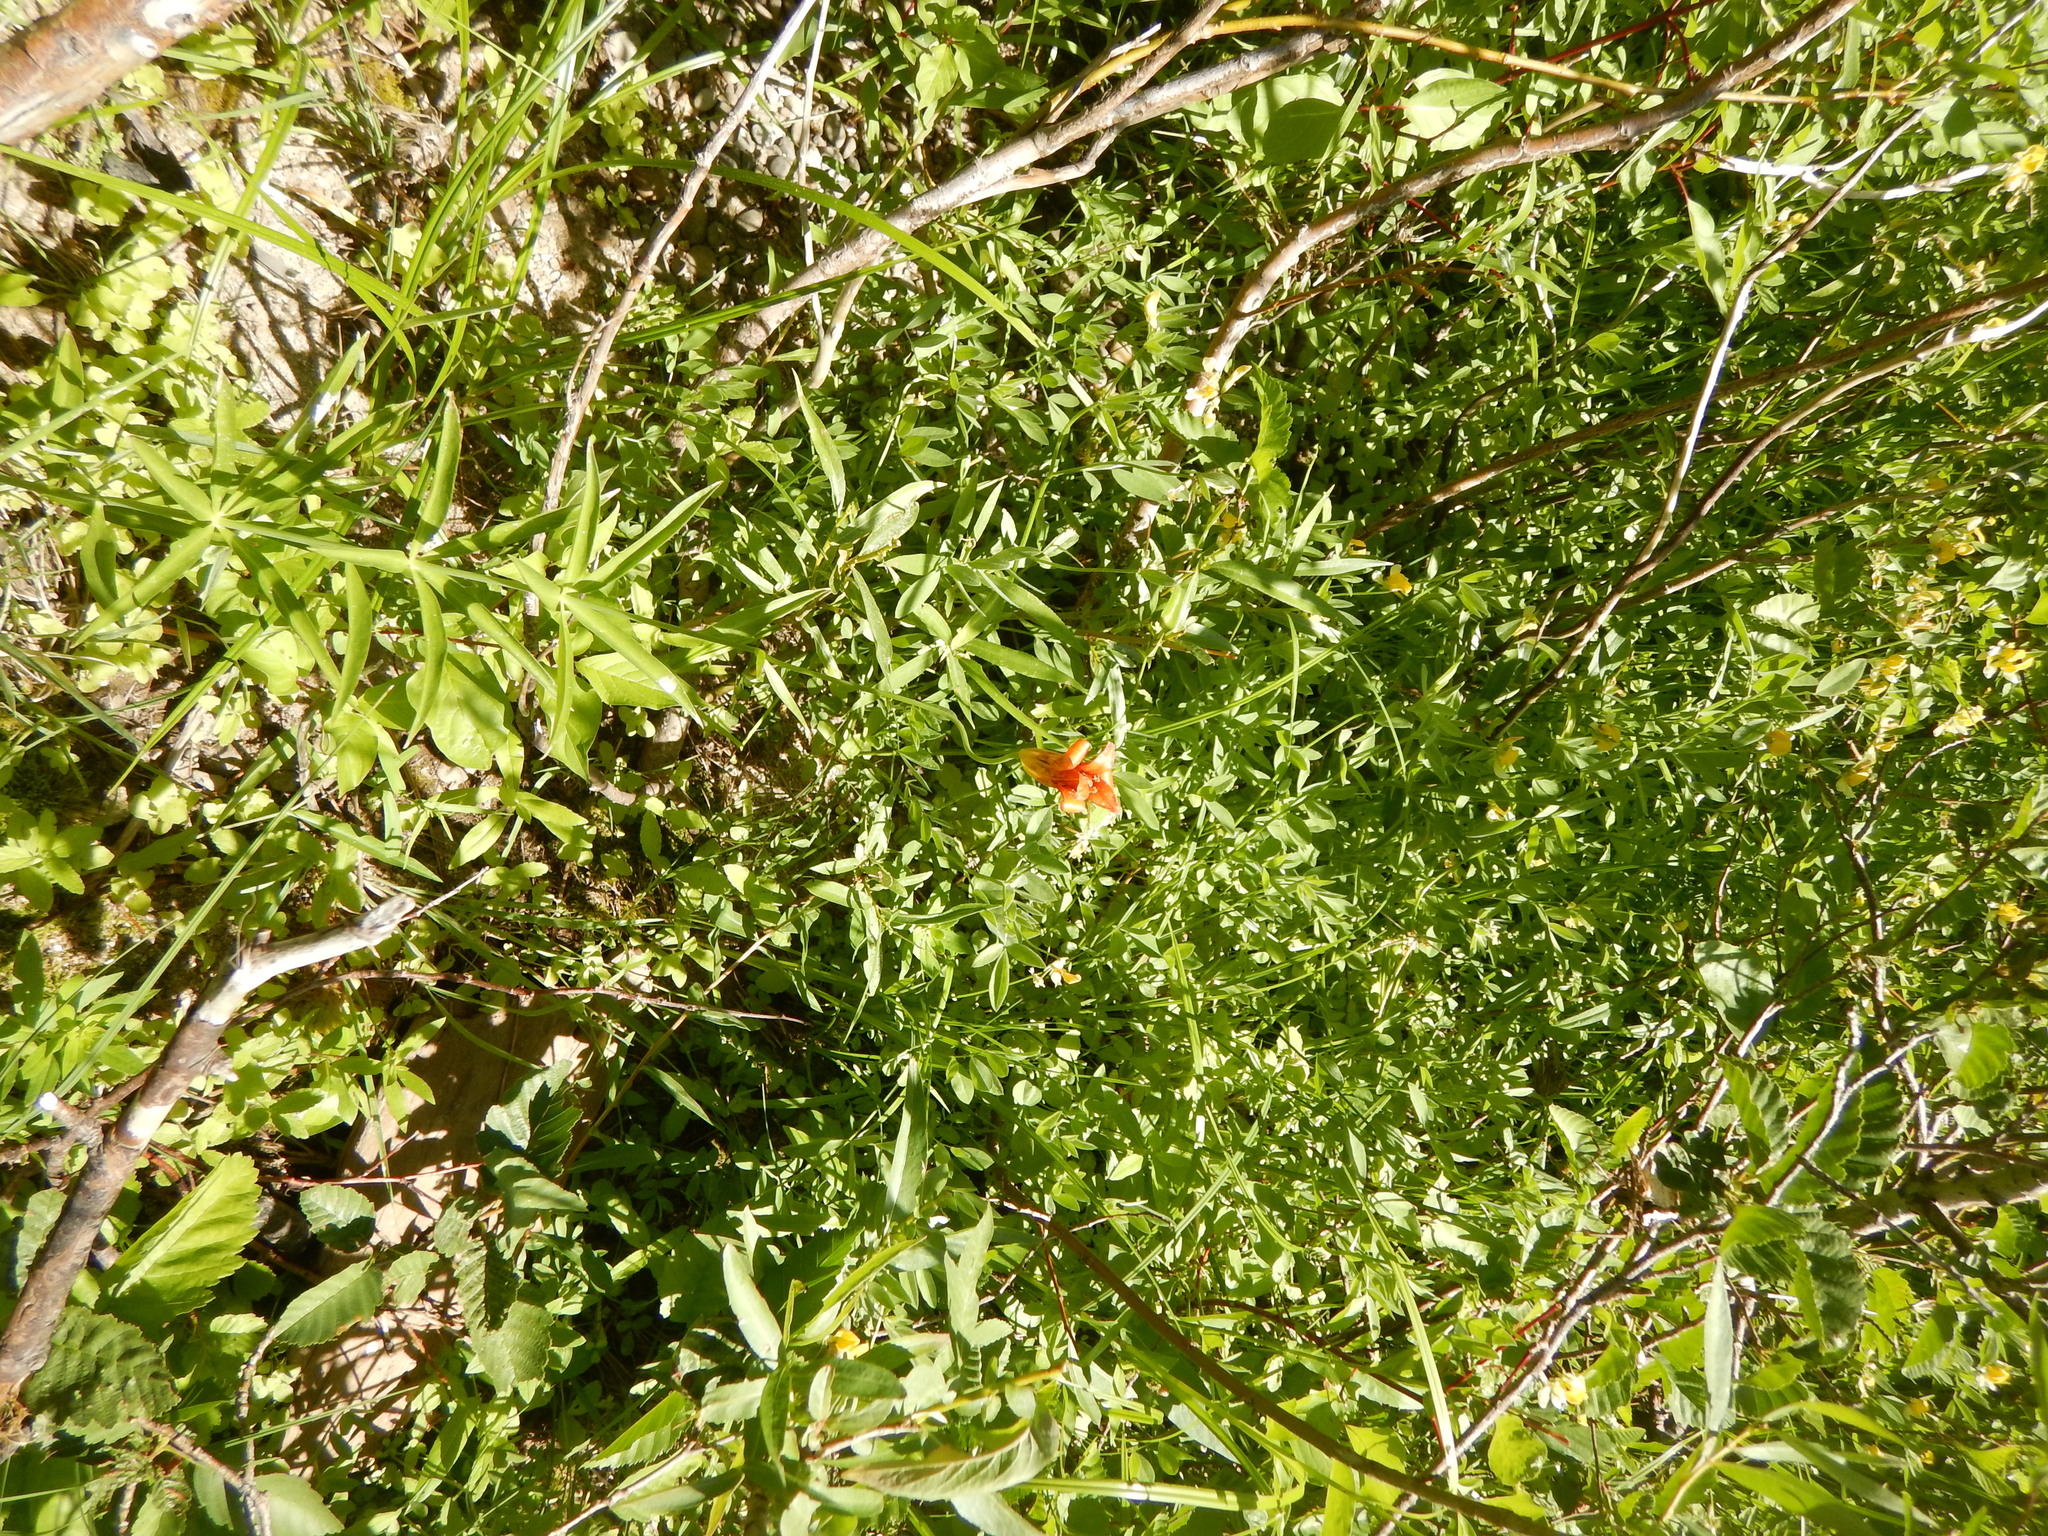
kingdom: Plantae
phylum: Tracheophyta
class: Liliopsida
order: Liliales
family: Liliaceae
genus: Lilium
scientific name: Lilium parvum
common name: Alpine lily
